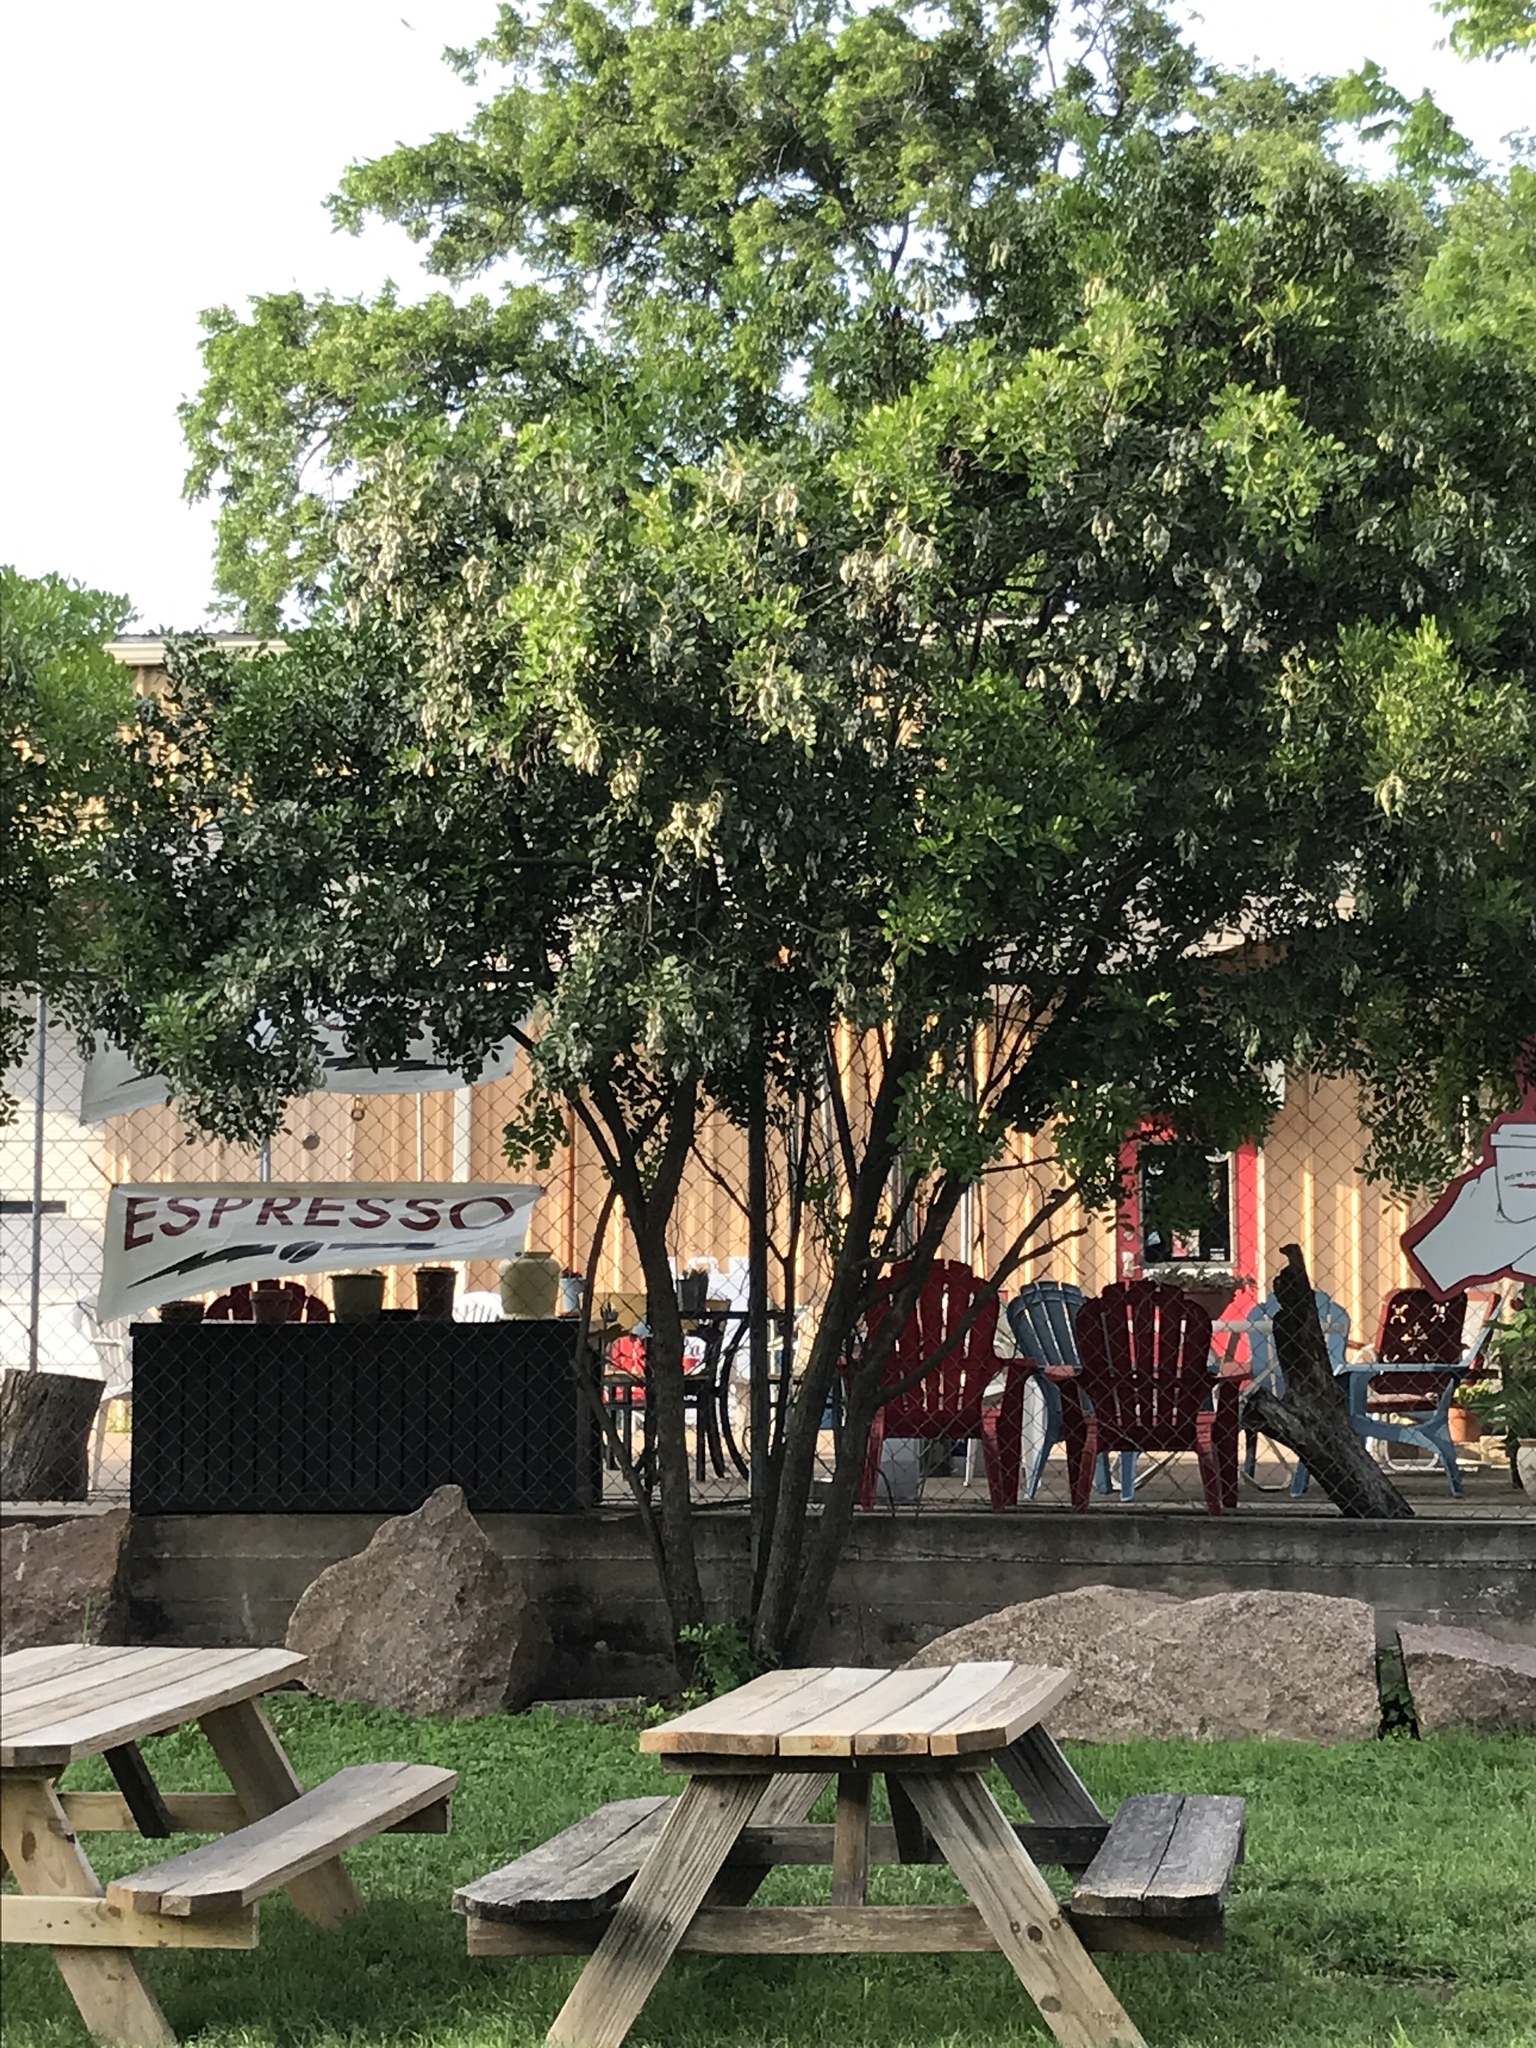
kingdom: Plantae
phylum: Tracheophyta
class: Magnoliopsida
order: Fabales
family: Fabaceae
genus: Dermatophyllum
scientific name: Dermatophyllum secundiflorum
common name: Texas-mountain-laurel
